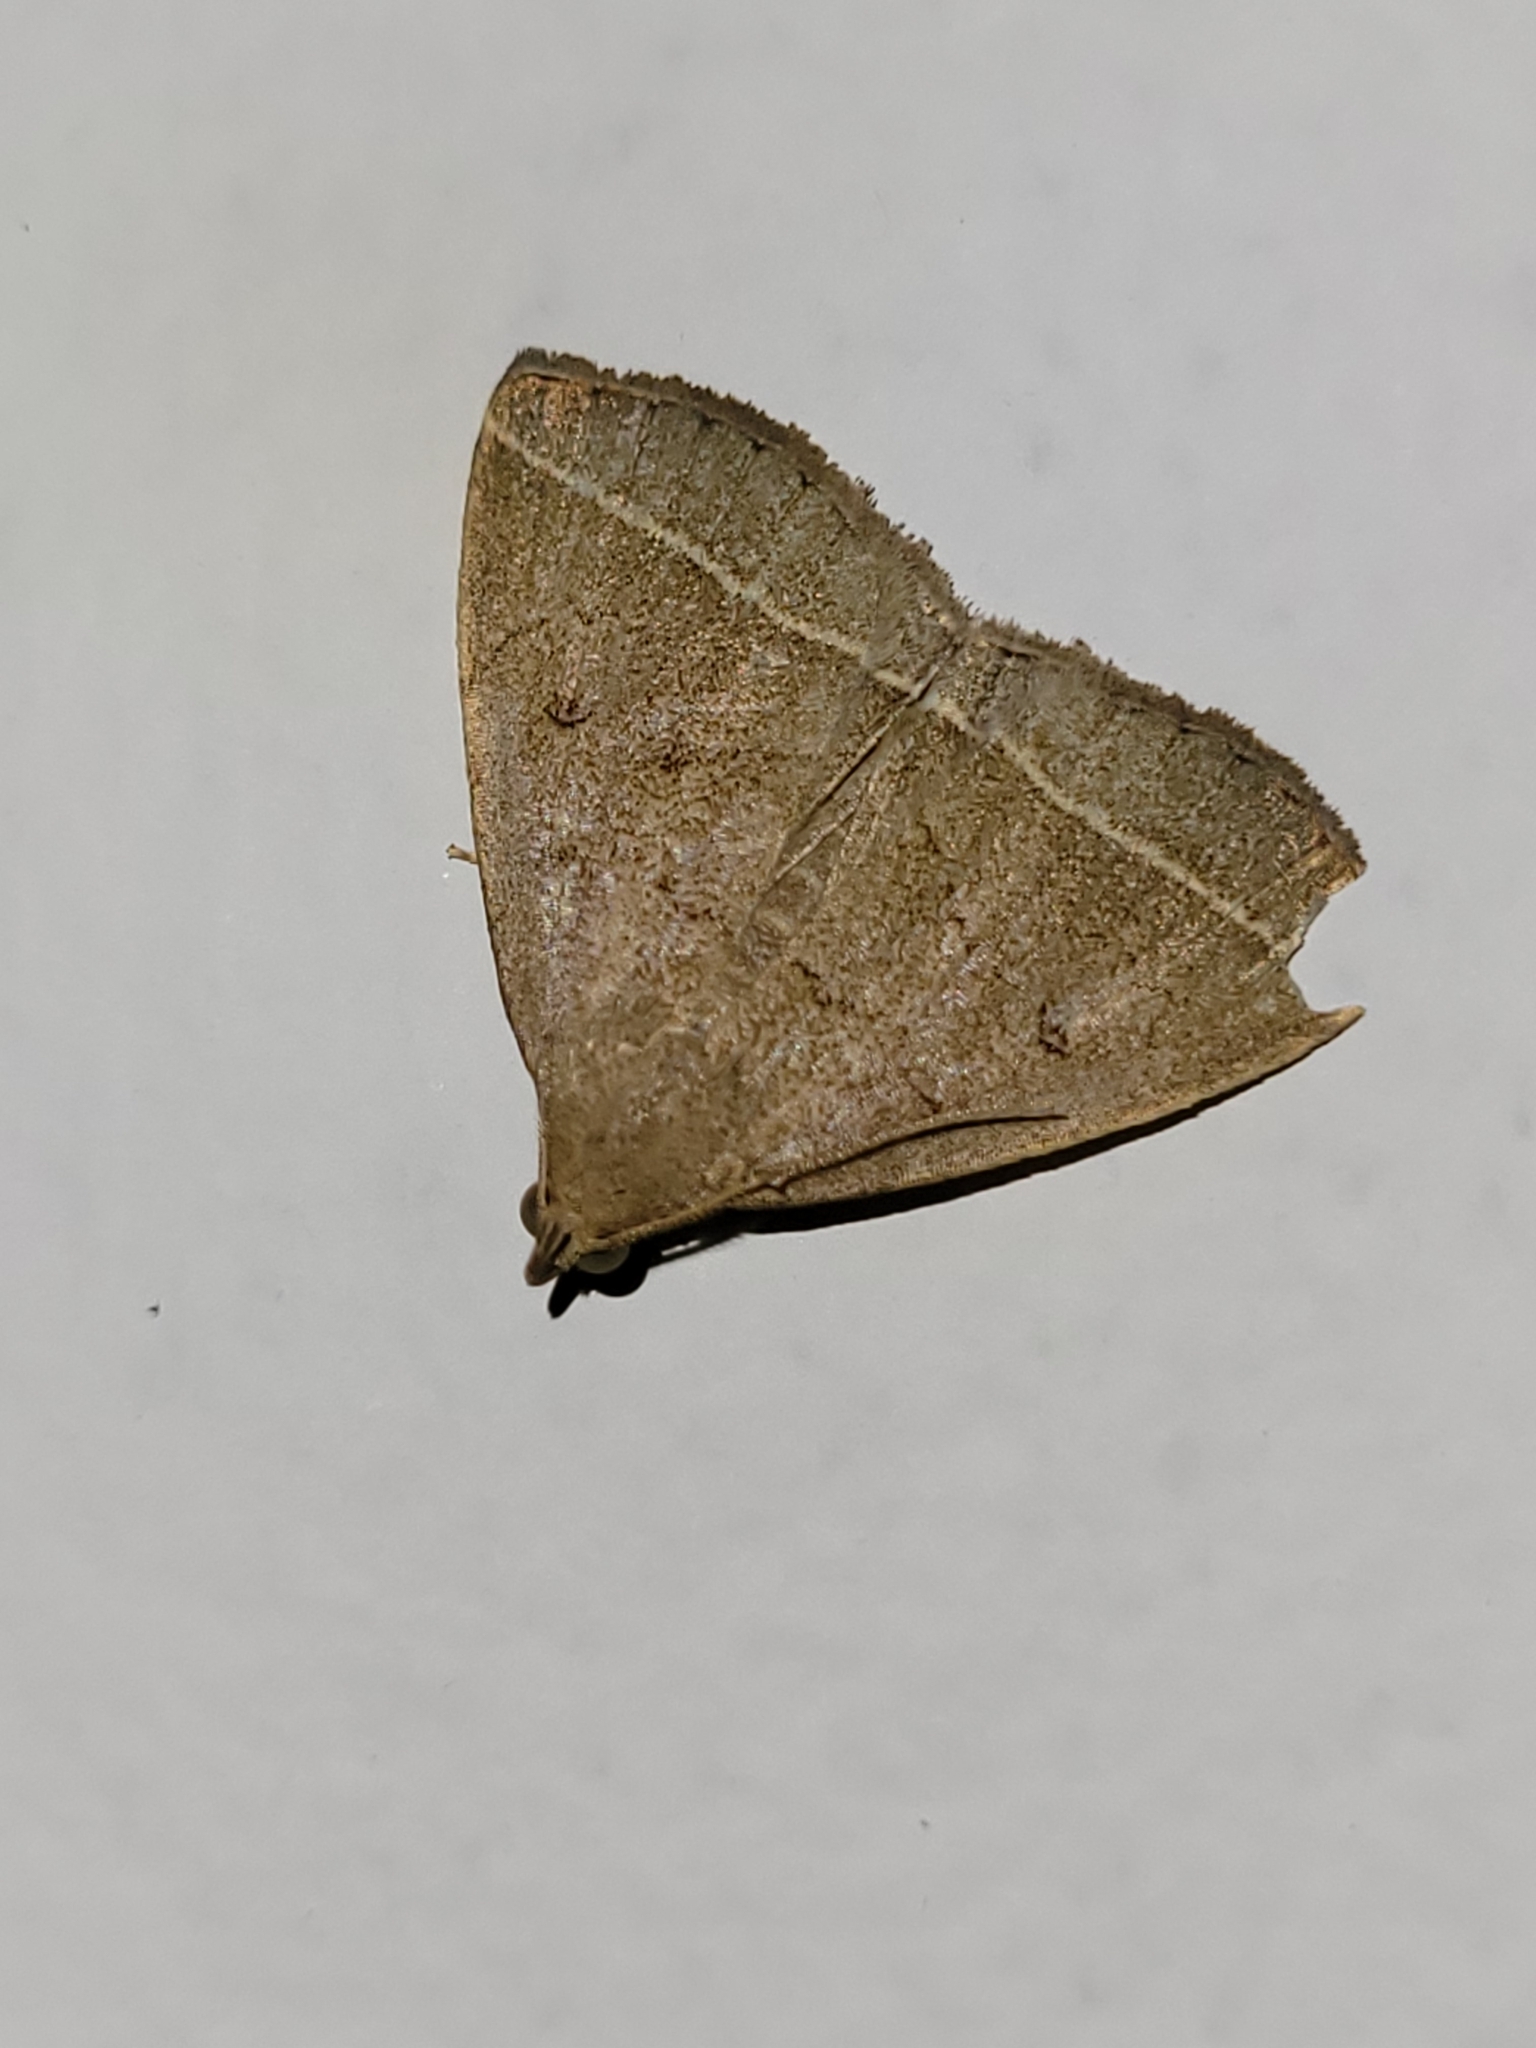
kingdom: Animalia
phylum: Arthropoda
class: Insecta
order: Lepidoptera
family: Erebidae
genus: Zanclognatha
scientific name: Zanclognatha marcidilinea
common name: Yellowish fan-foot
